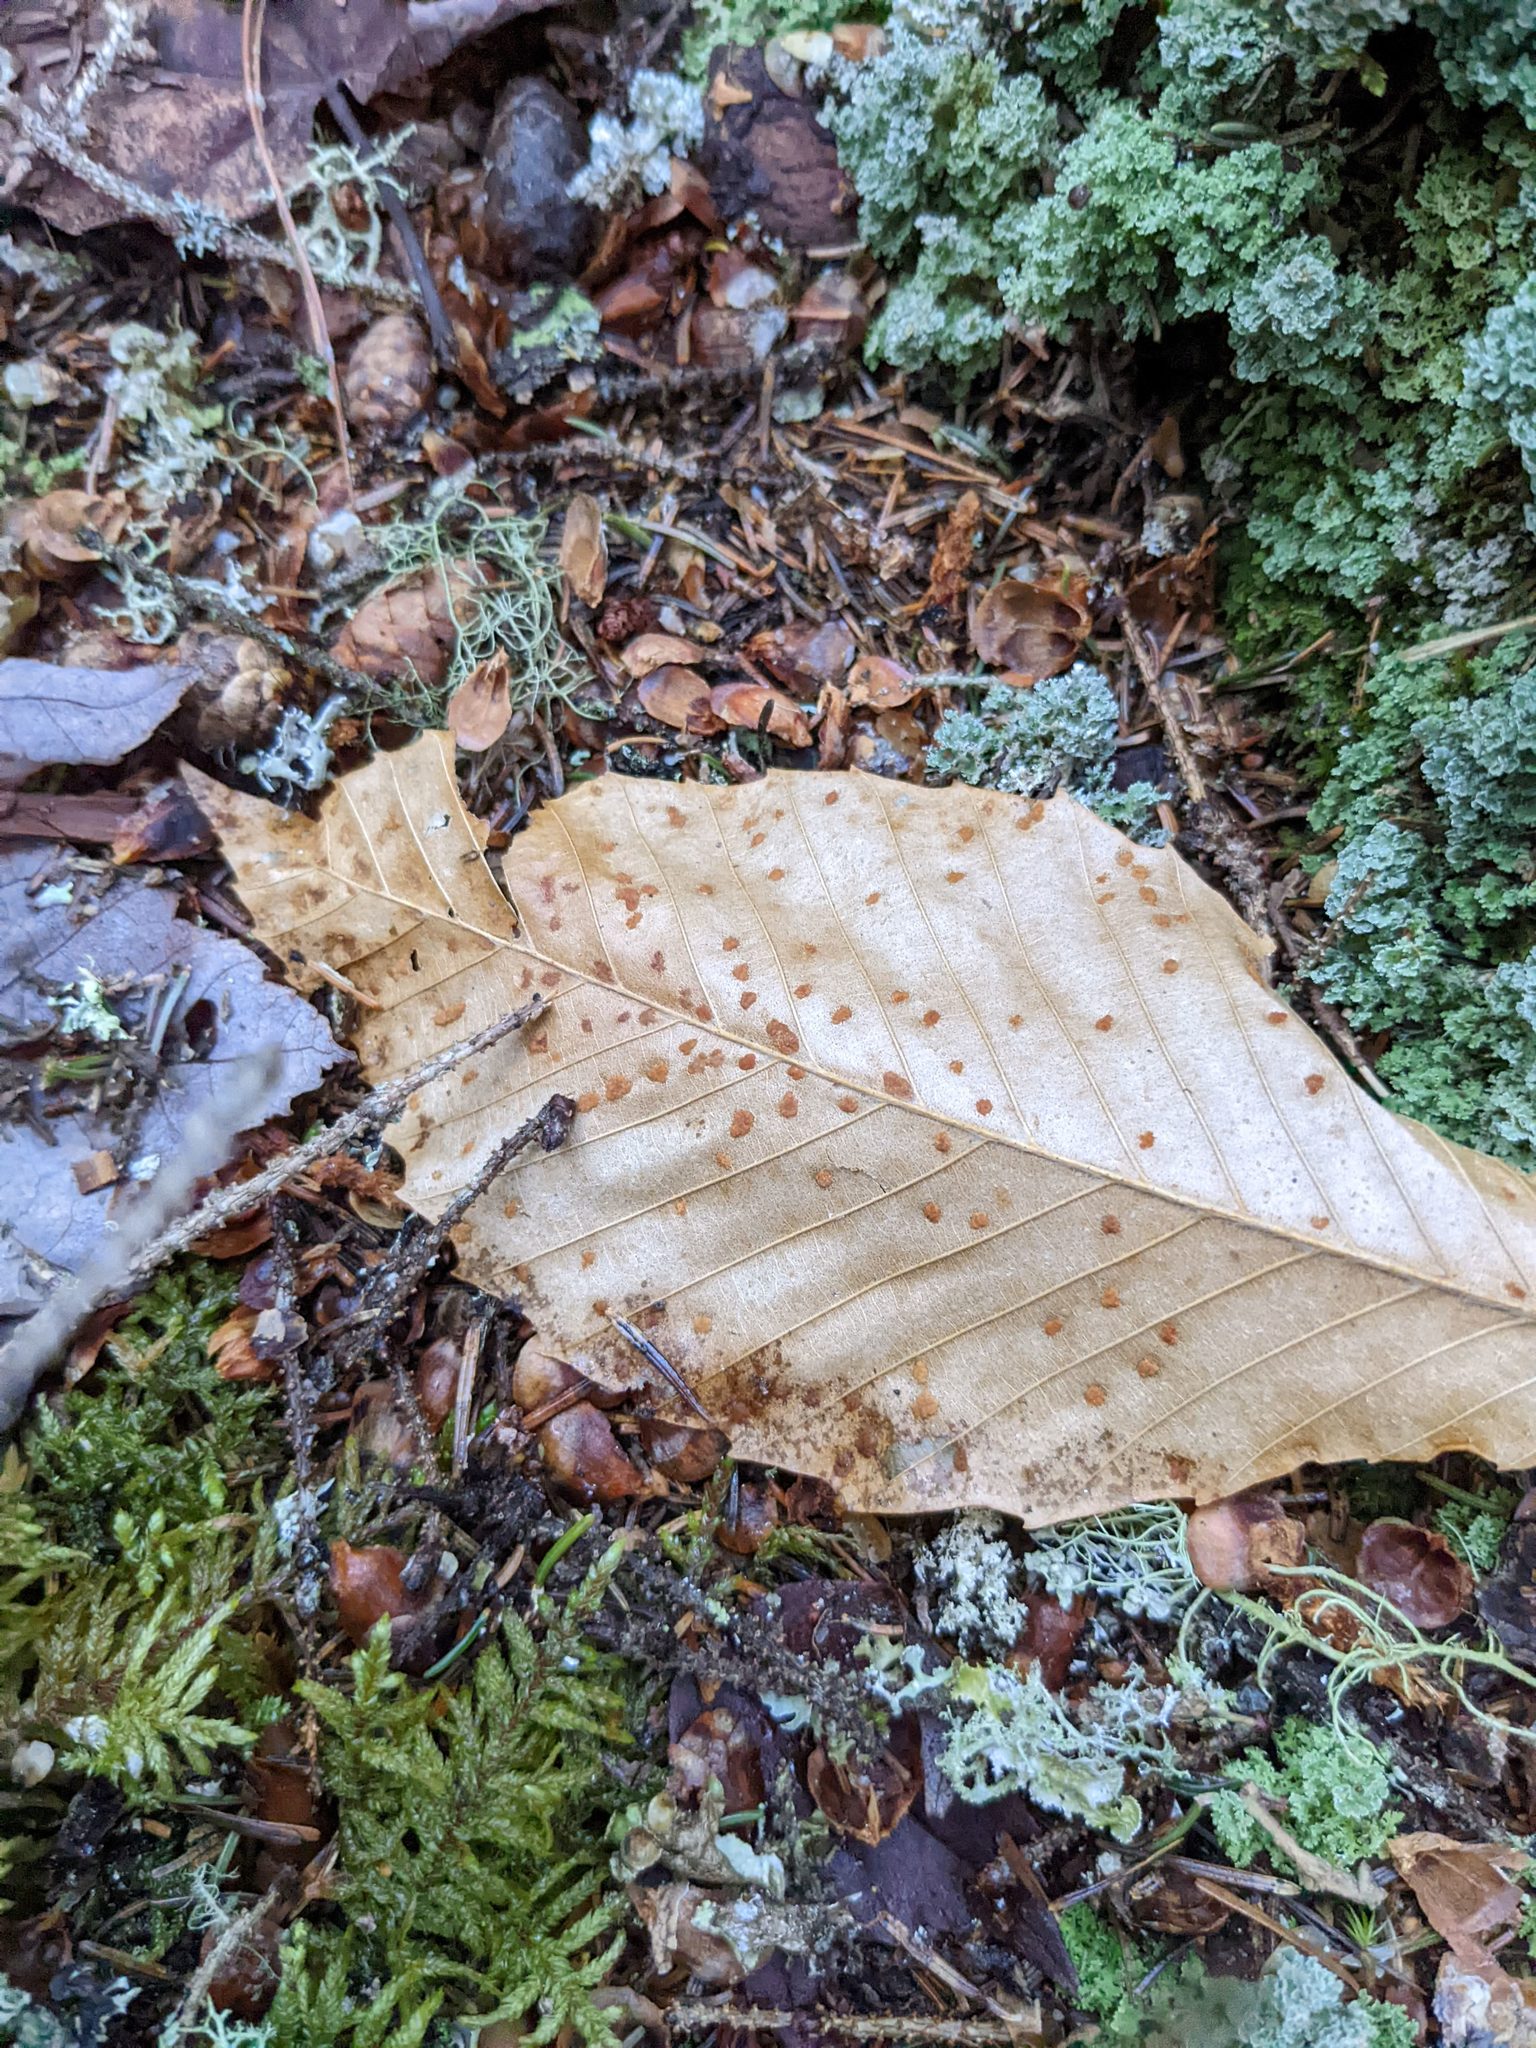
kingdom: Plantae
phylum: Tracheophyta
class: Magnoliopsida
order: Fagales
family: Fagaceae
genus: Fagus
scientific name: Fagus grandifolia
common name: American beech
